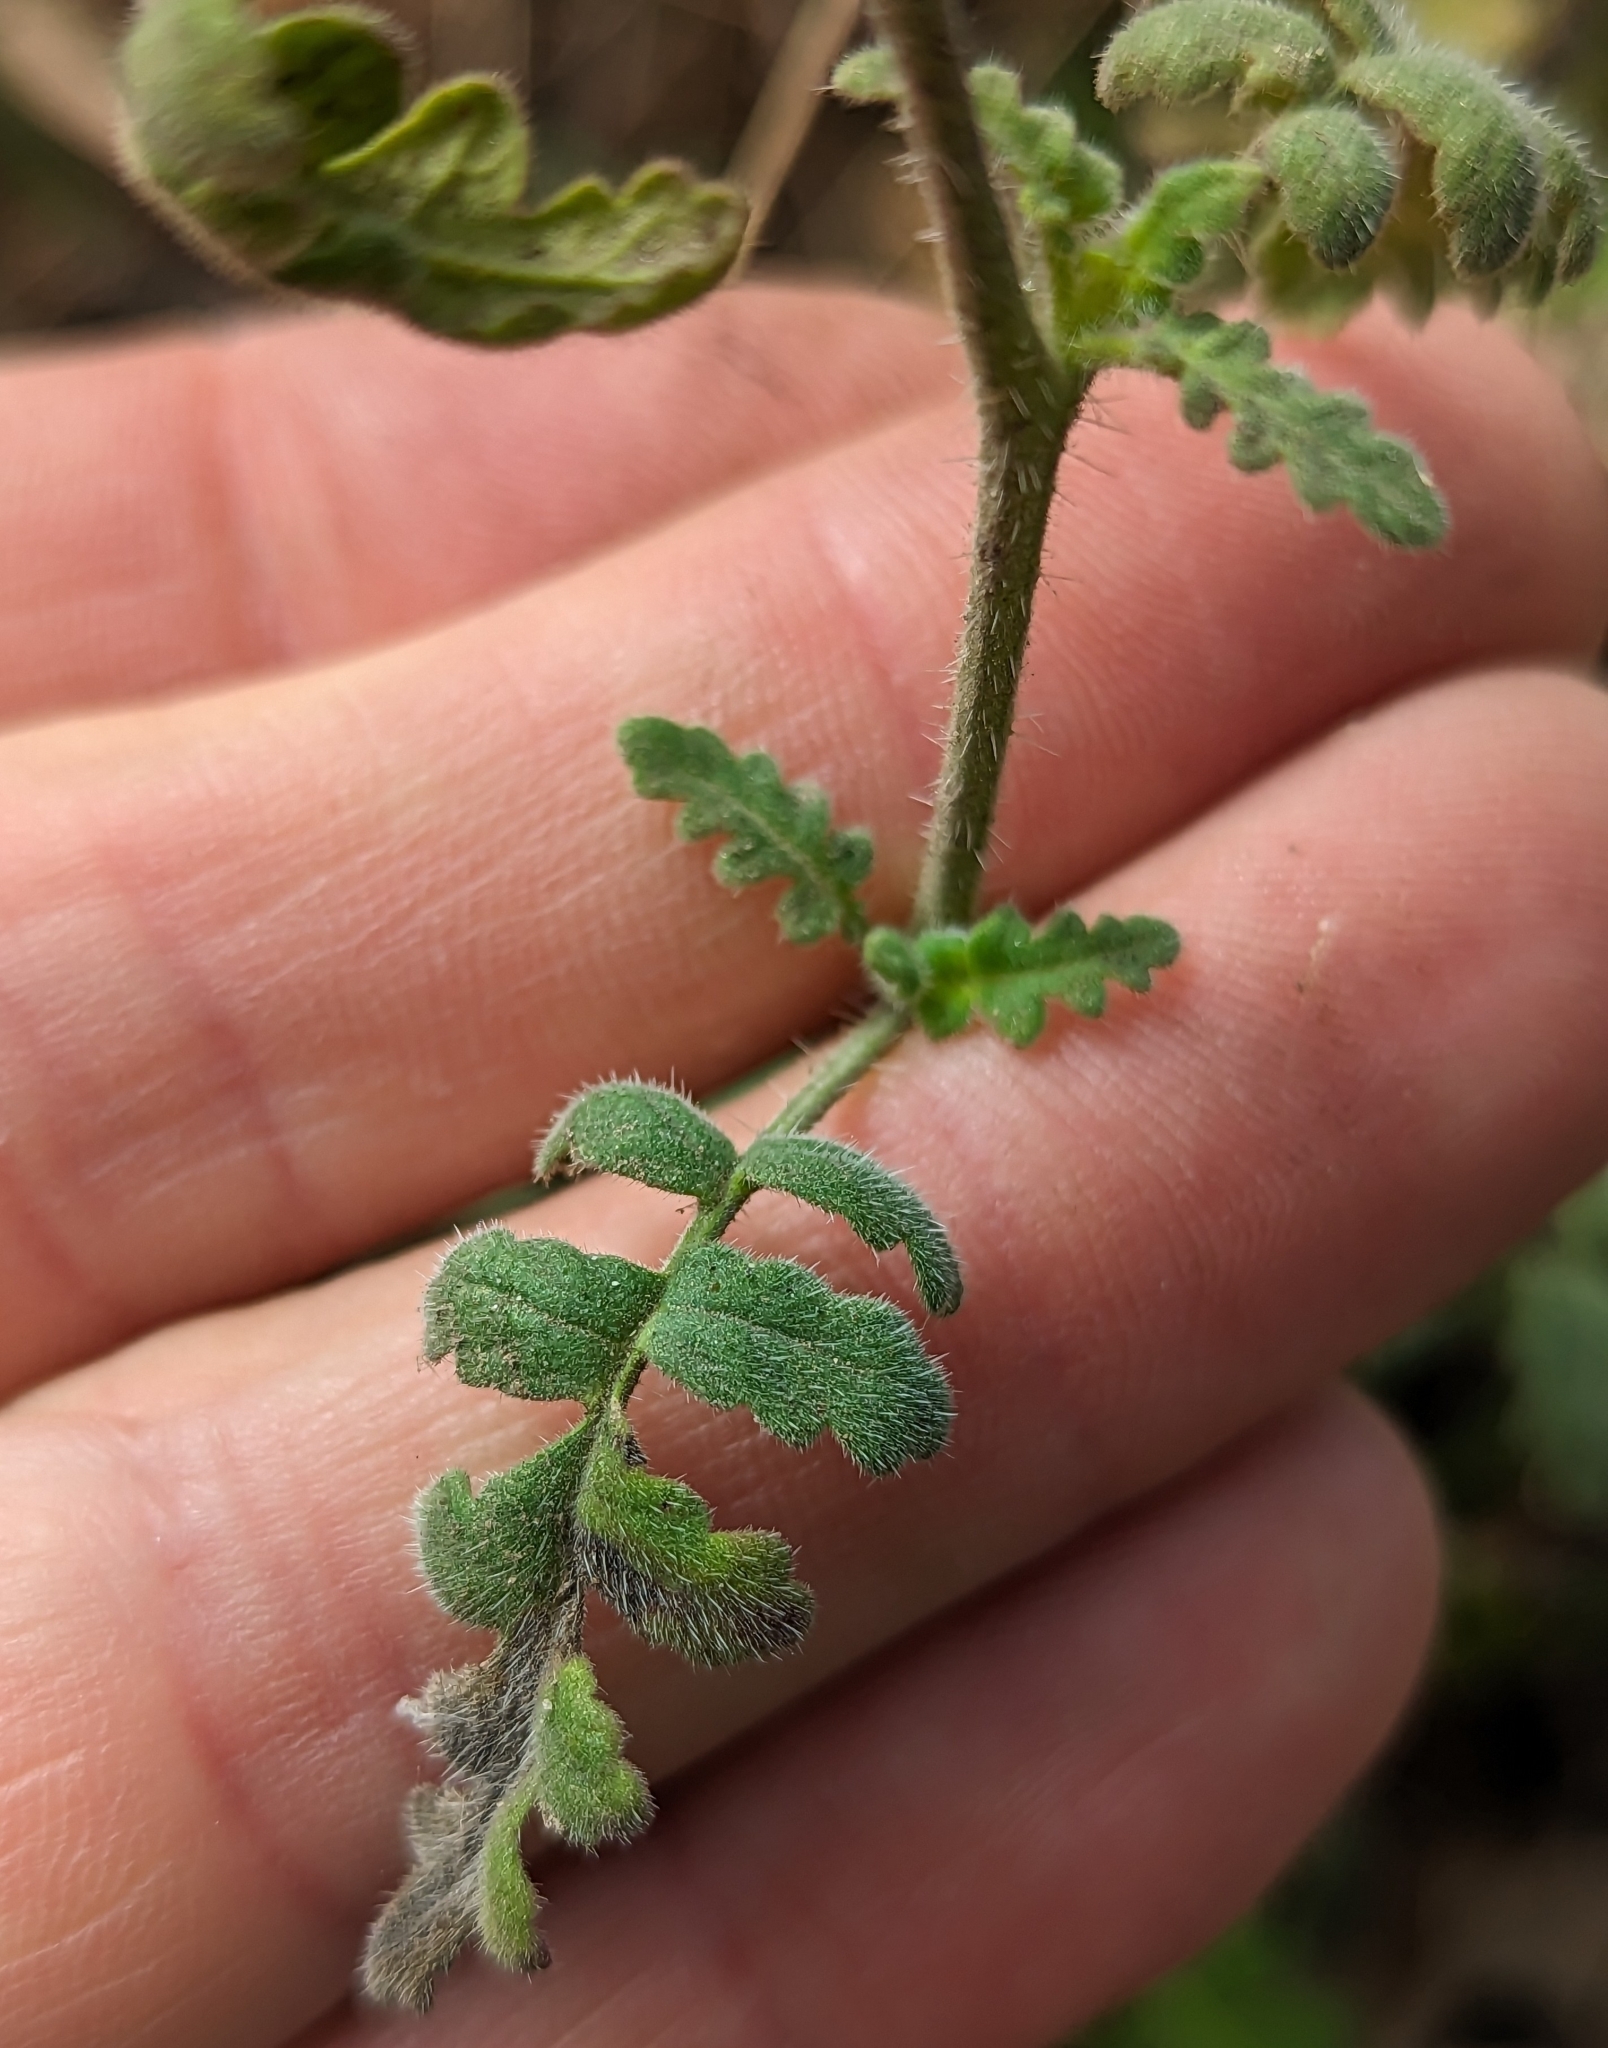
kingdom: Plantae
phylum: Tracheophyta
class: Magnoliopsida
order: Boraginales
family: Hydrophyllaceae
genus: Phacelia
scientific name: Phacelia ramosissima
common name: Branching phacelia
